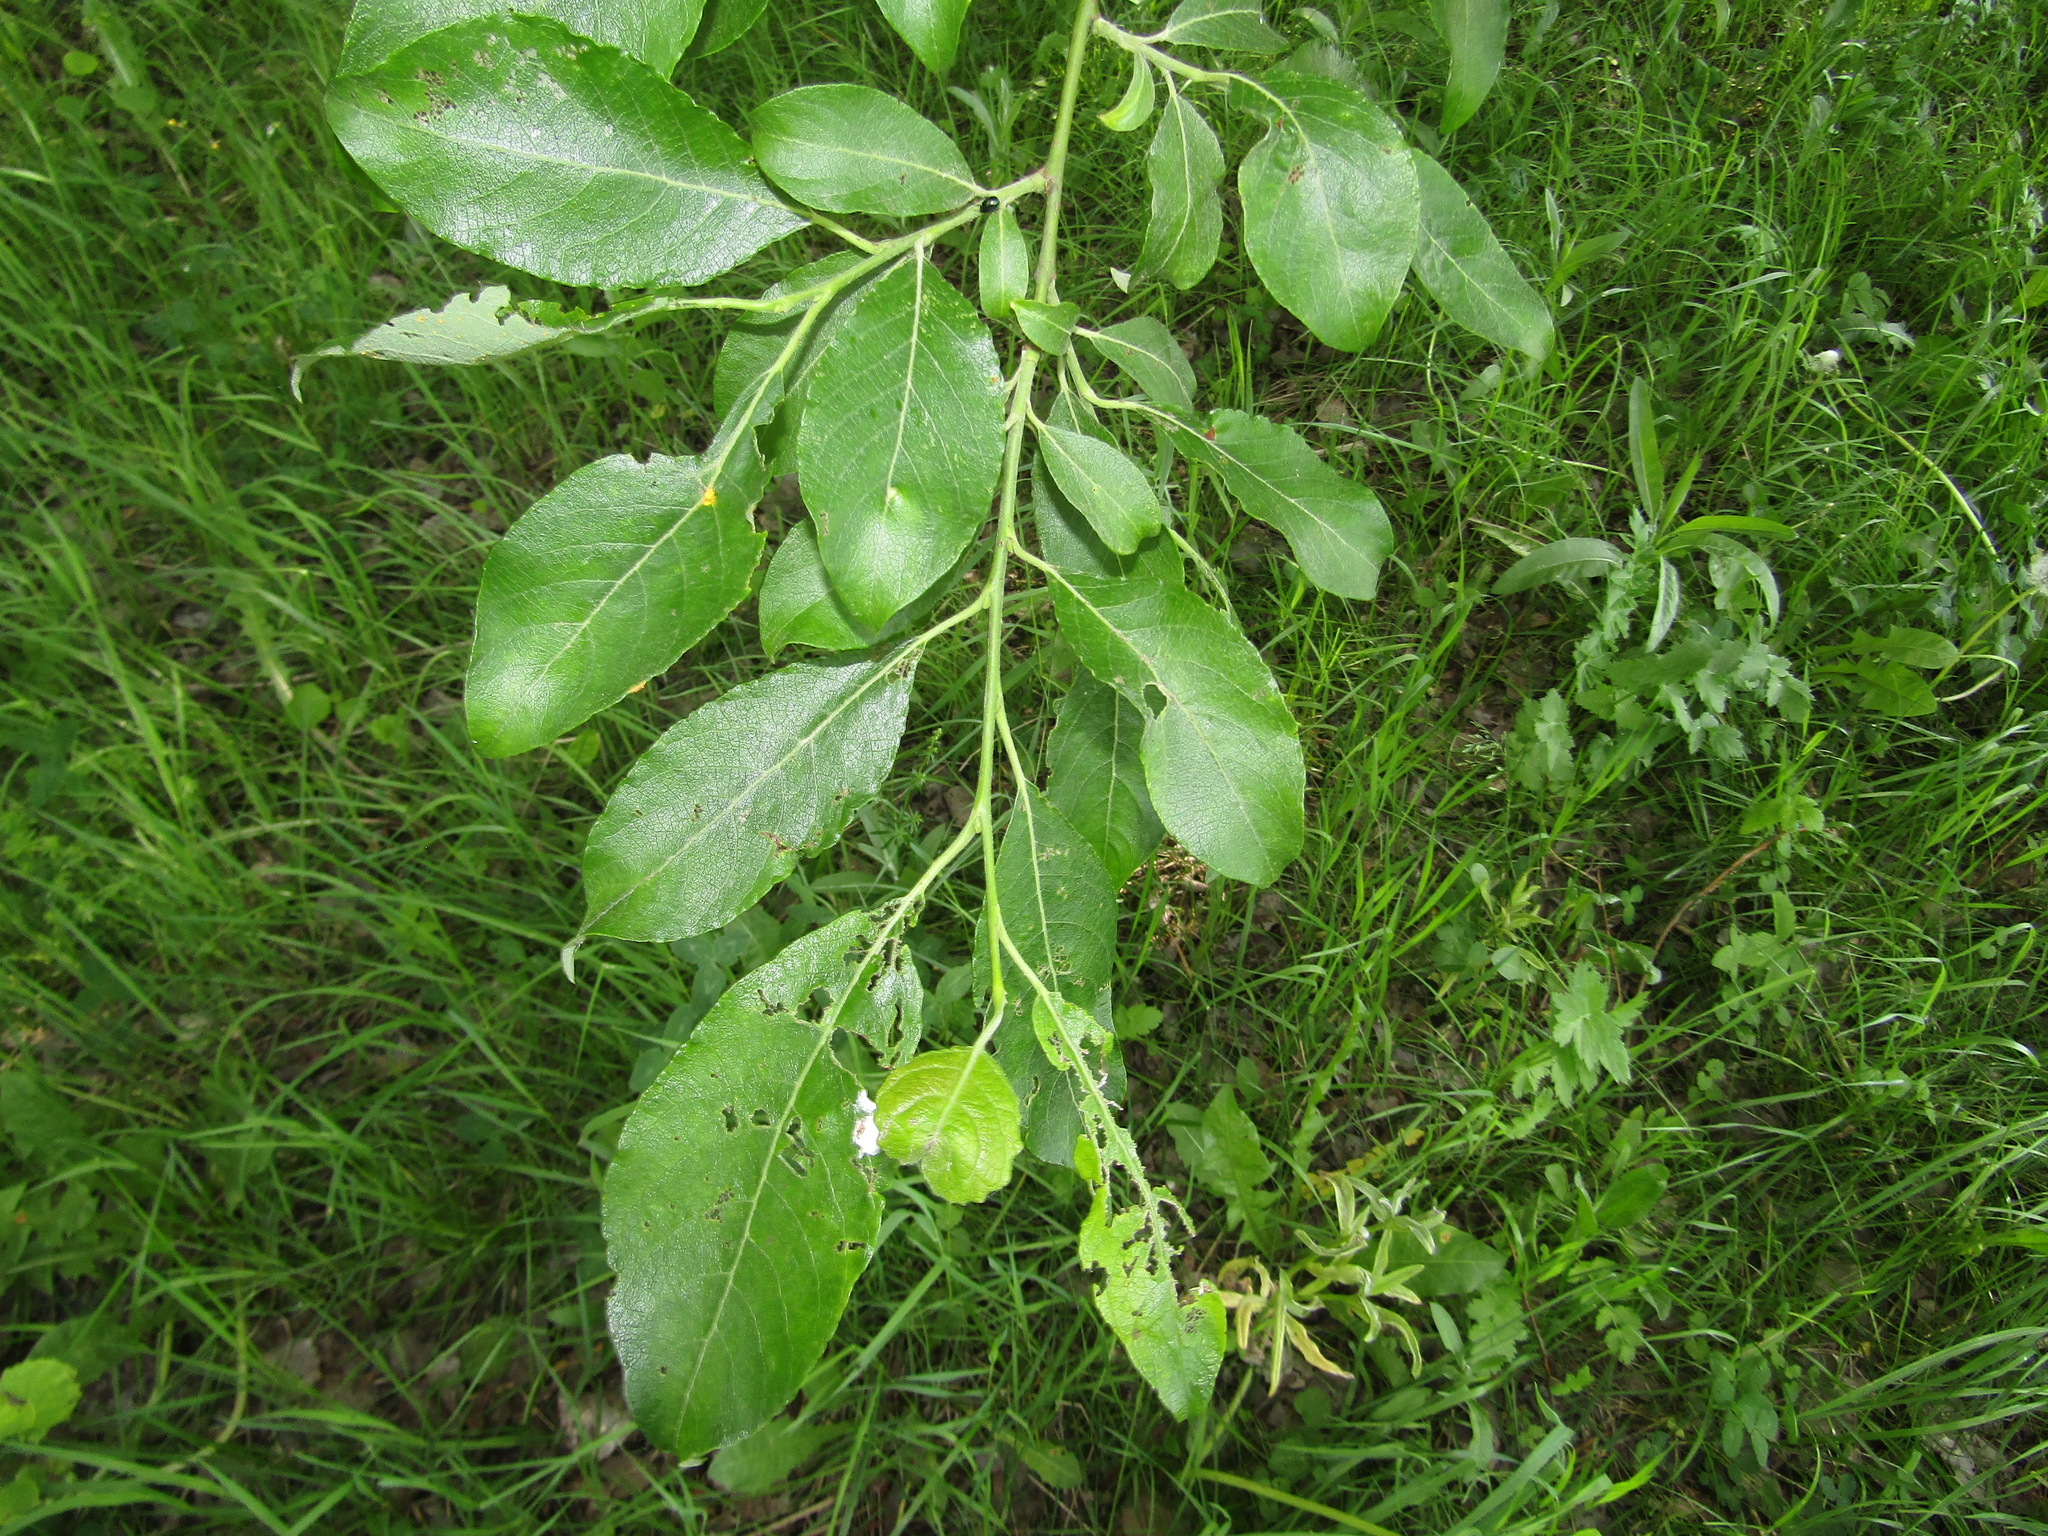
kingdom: Plantae
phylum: Tracheophyta
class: Magnoliopsida
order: Malpighiales
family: Salicaceae
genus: Salix
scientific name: Salix caprea
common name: Goat willow
